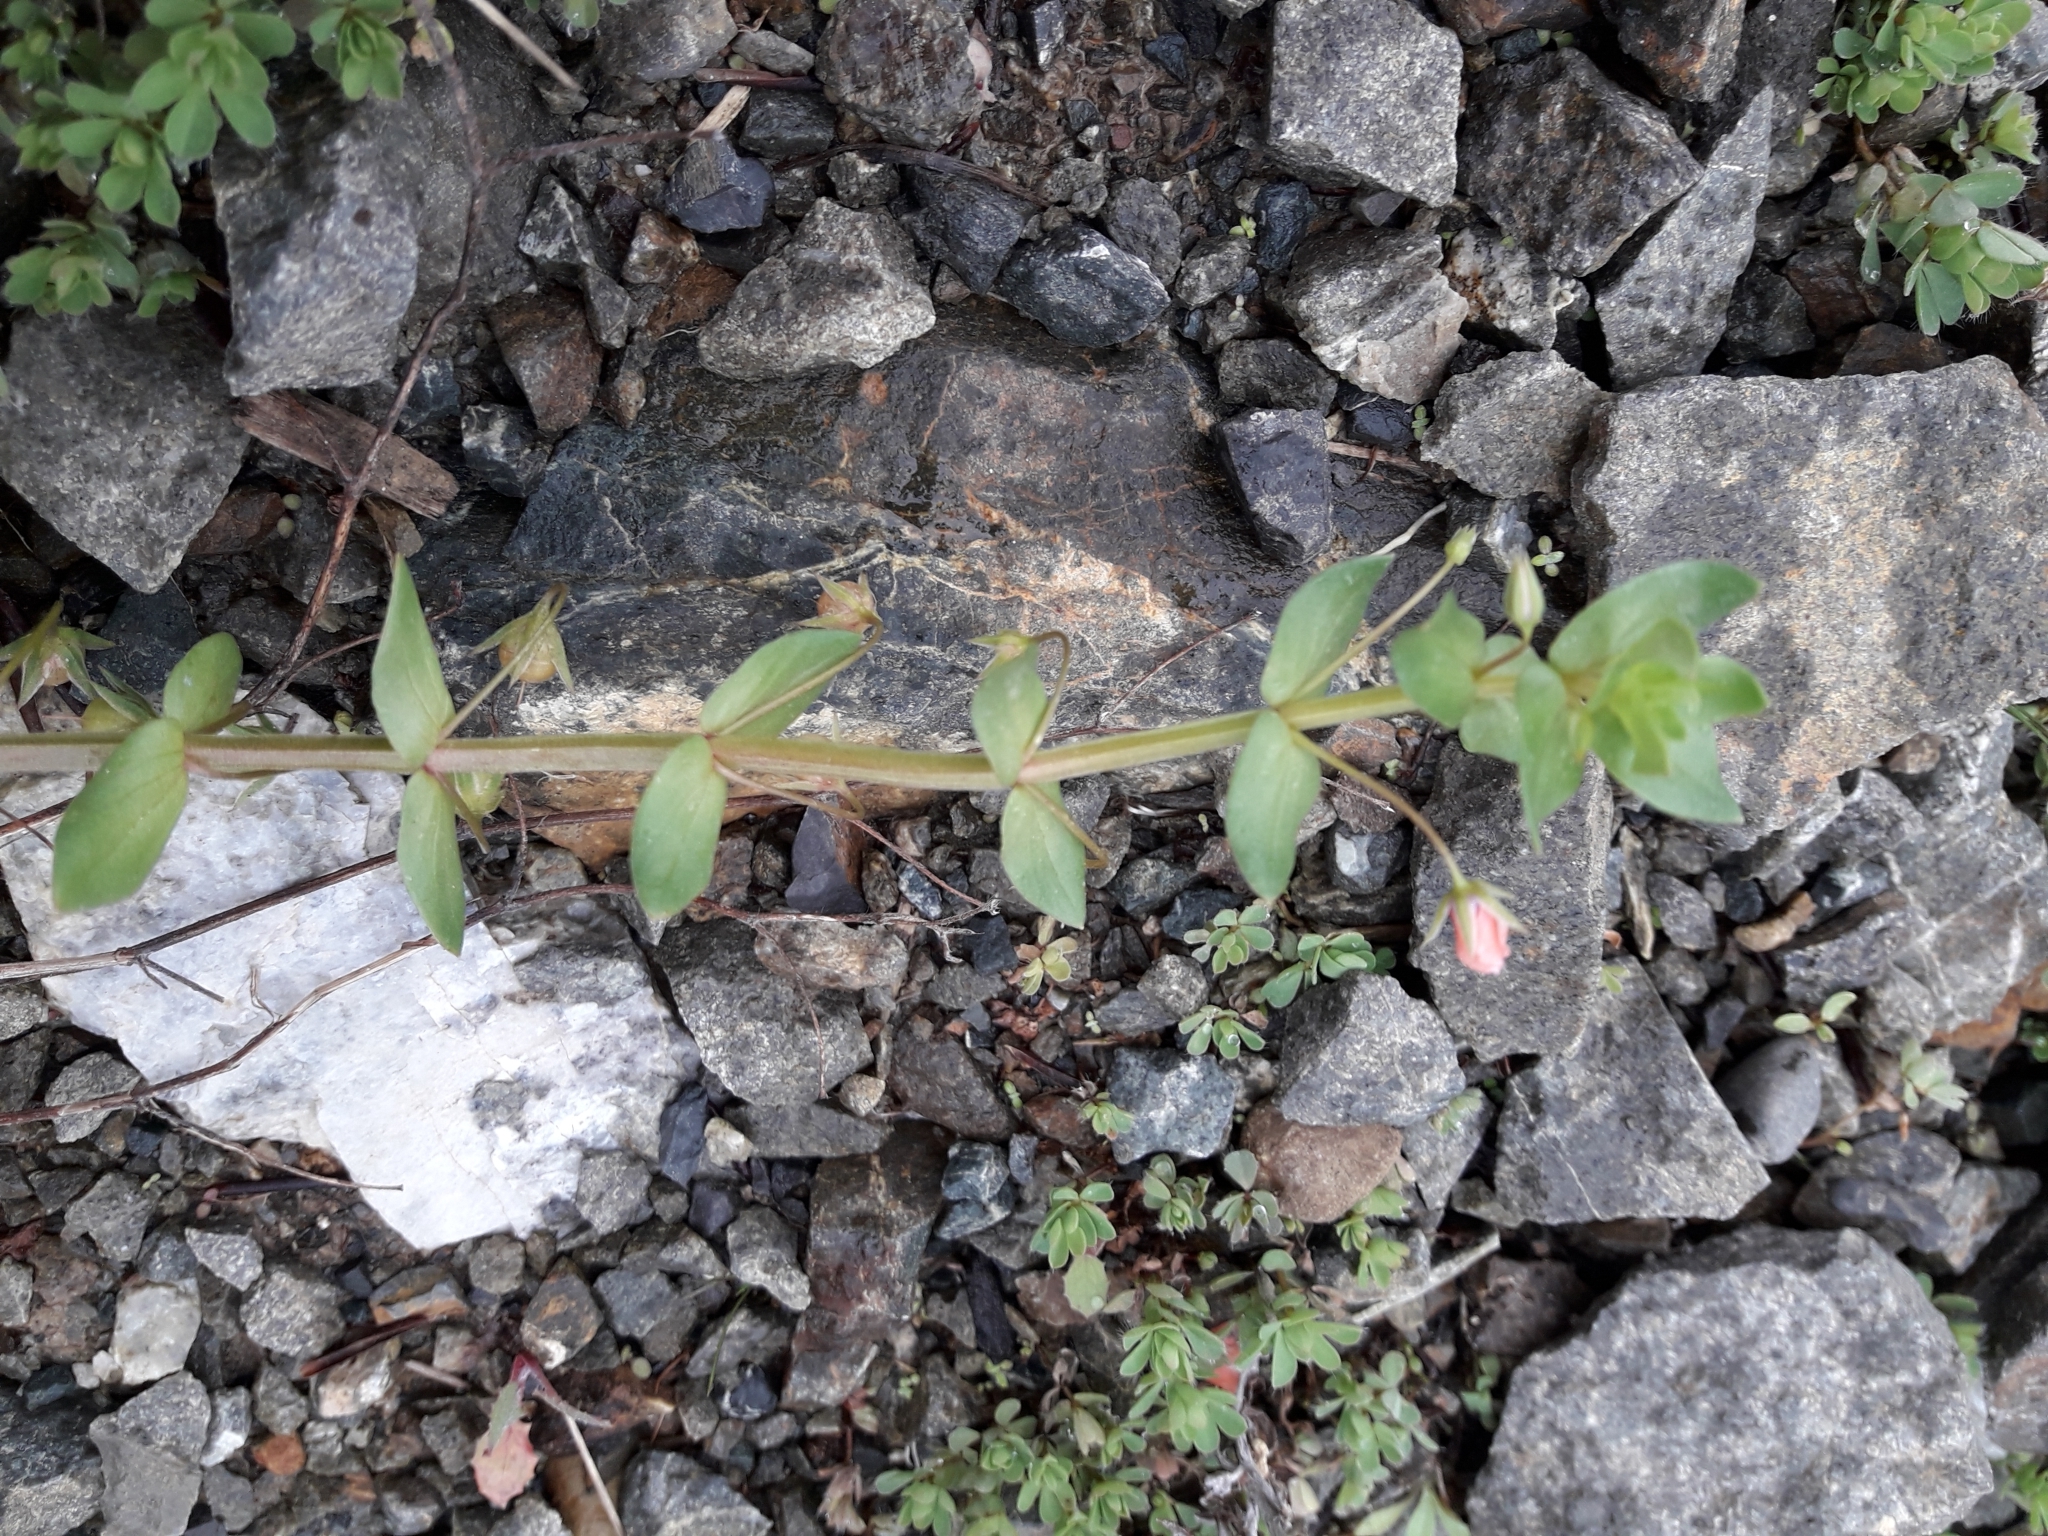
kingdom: Plantae
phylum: Tracheophyta
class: Magnoliopsida
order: Ericales
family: Primulaceae
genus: Lysimachia
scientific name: Lysimachia arvensis
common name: Scarlet pimpernel
